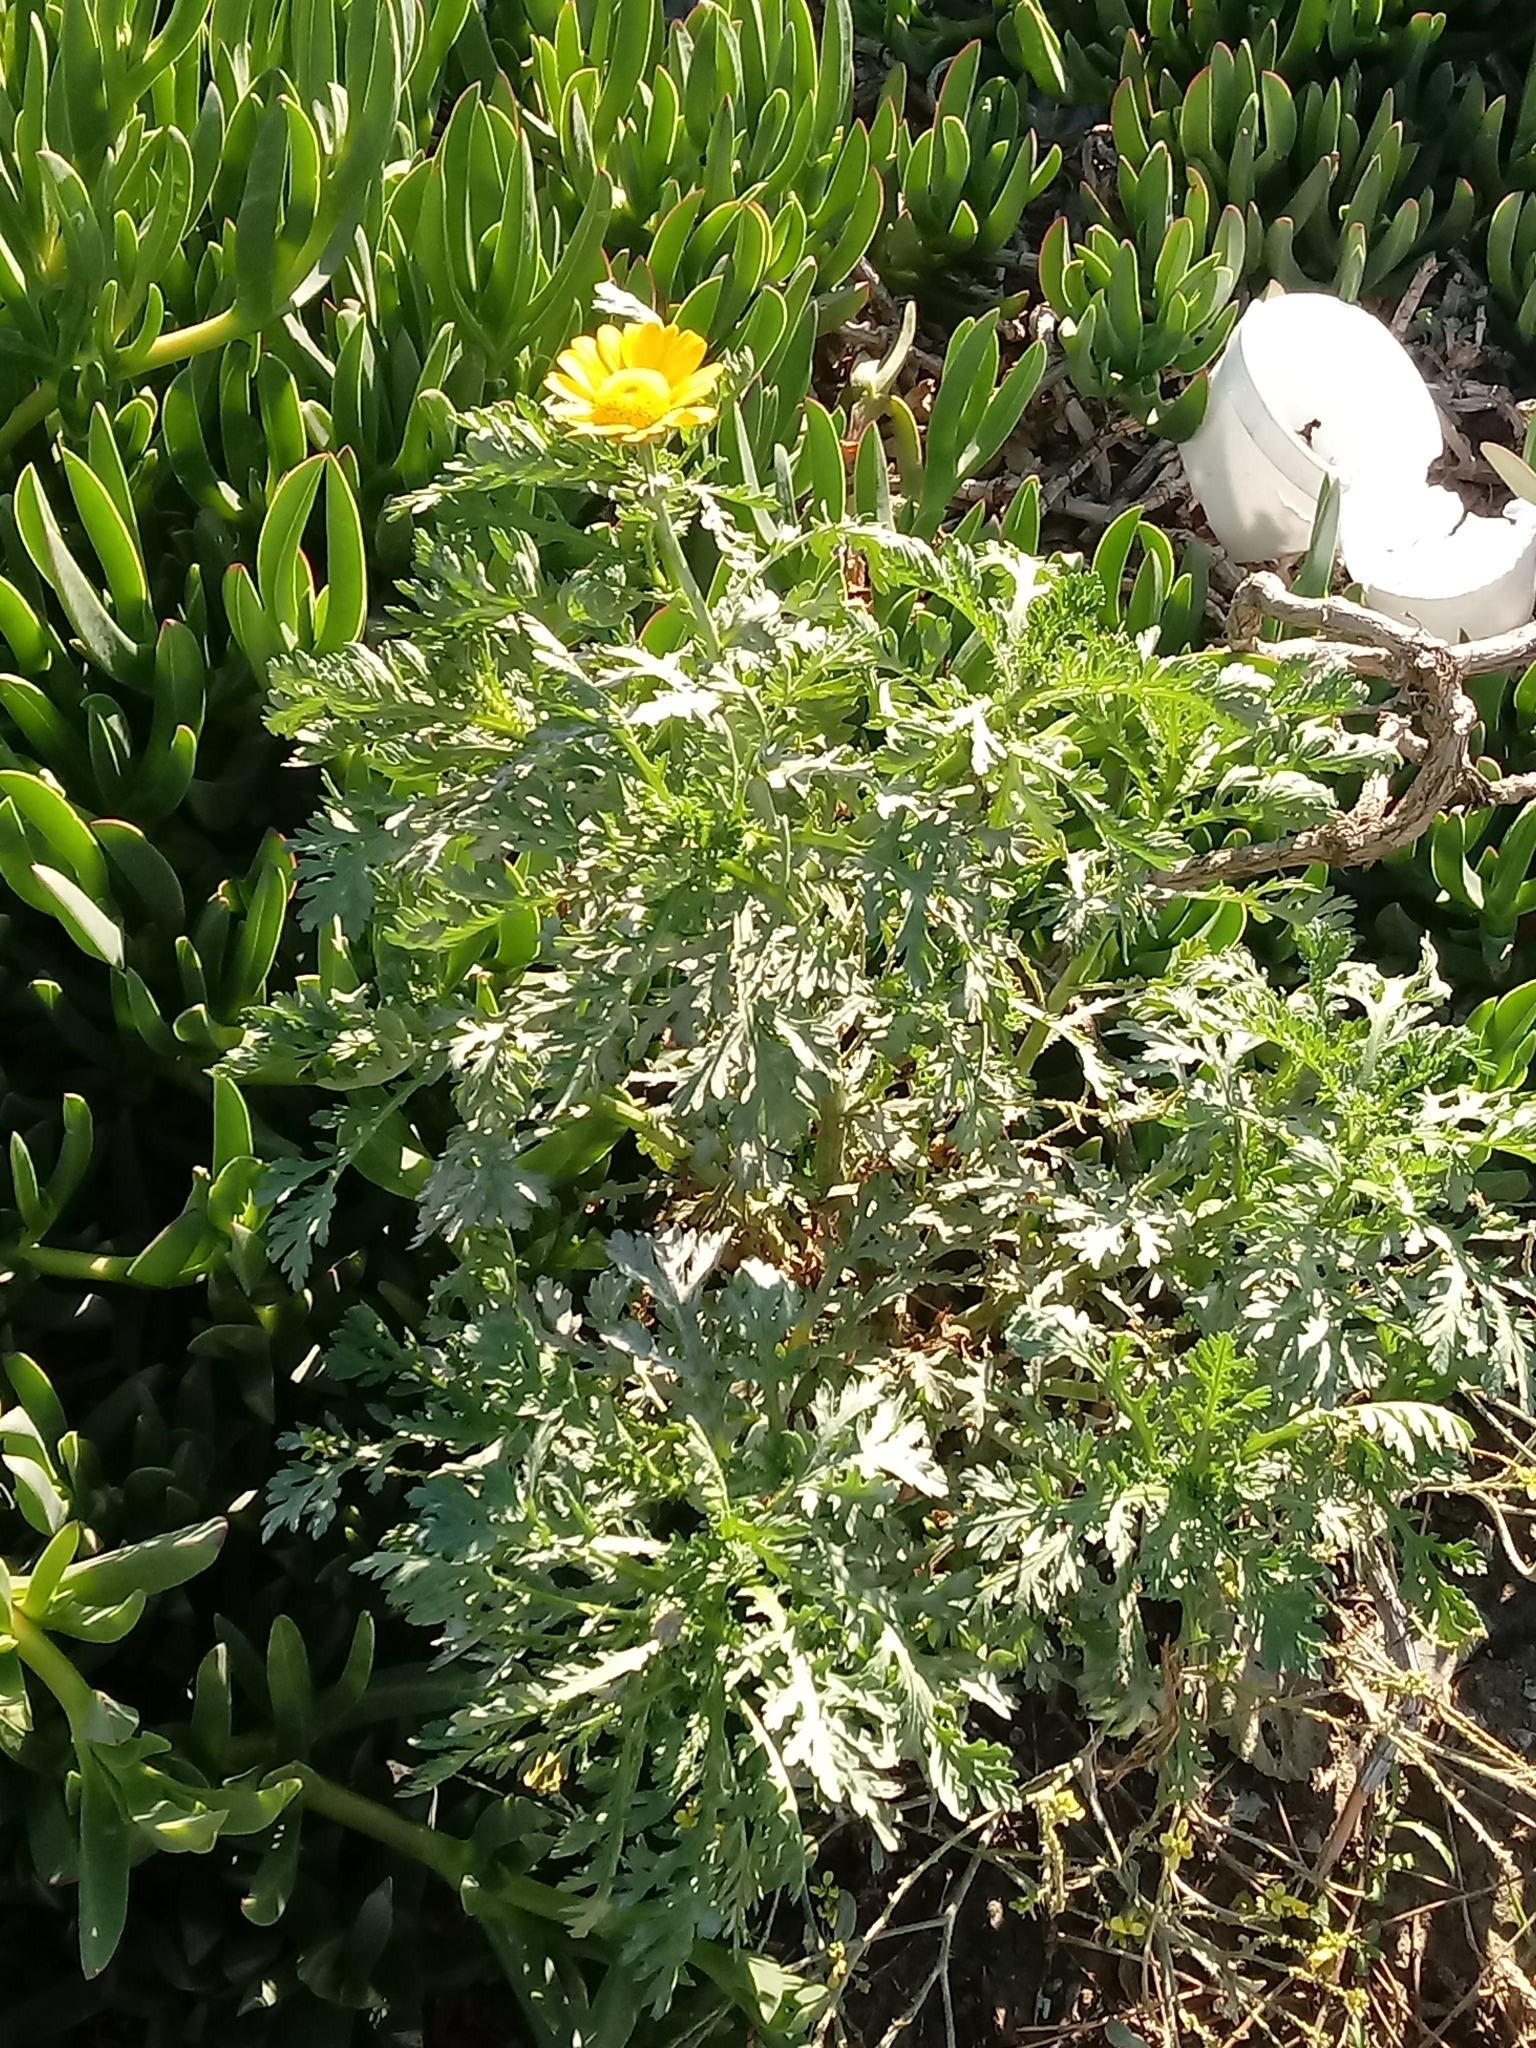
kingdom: Plantae
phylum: Tracheophyta
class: Magnoliopsida
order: Asterales
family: Asteraceae
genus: Glebionis
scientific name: Glebionis coronaria
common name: Crowndaisy
